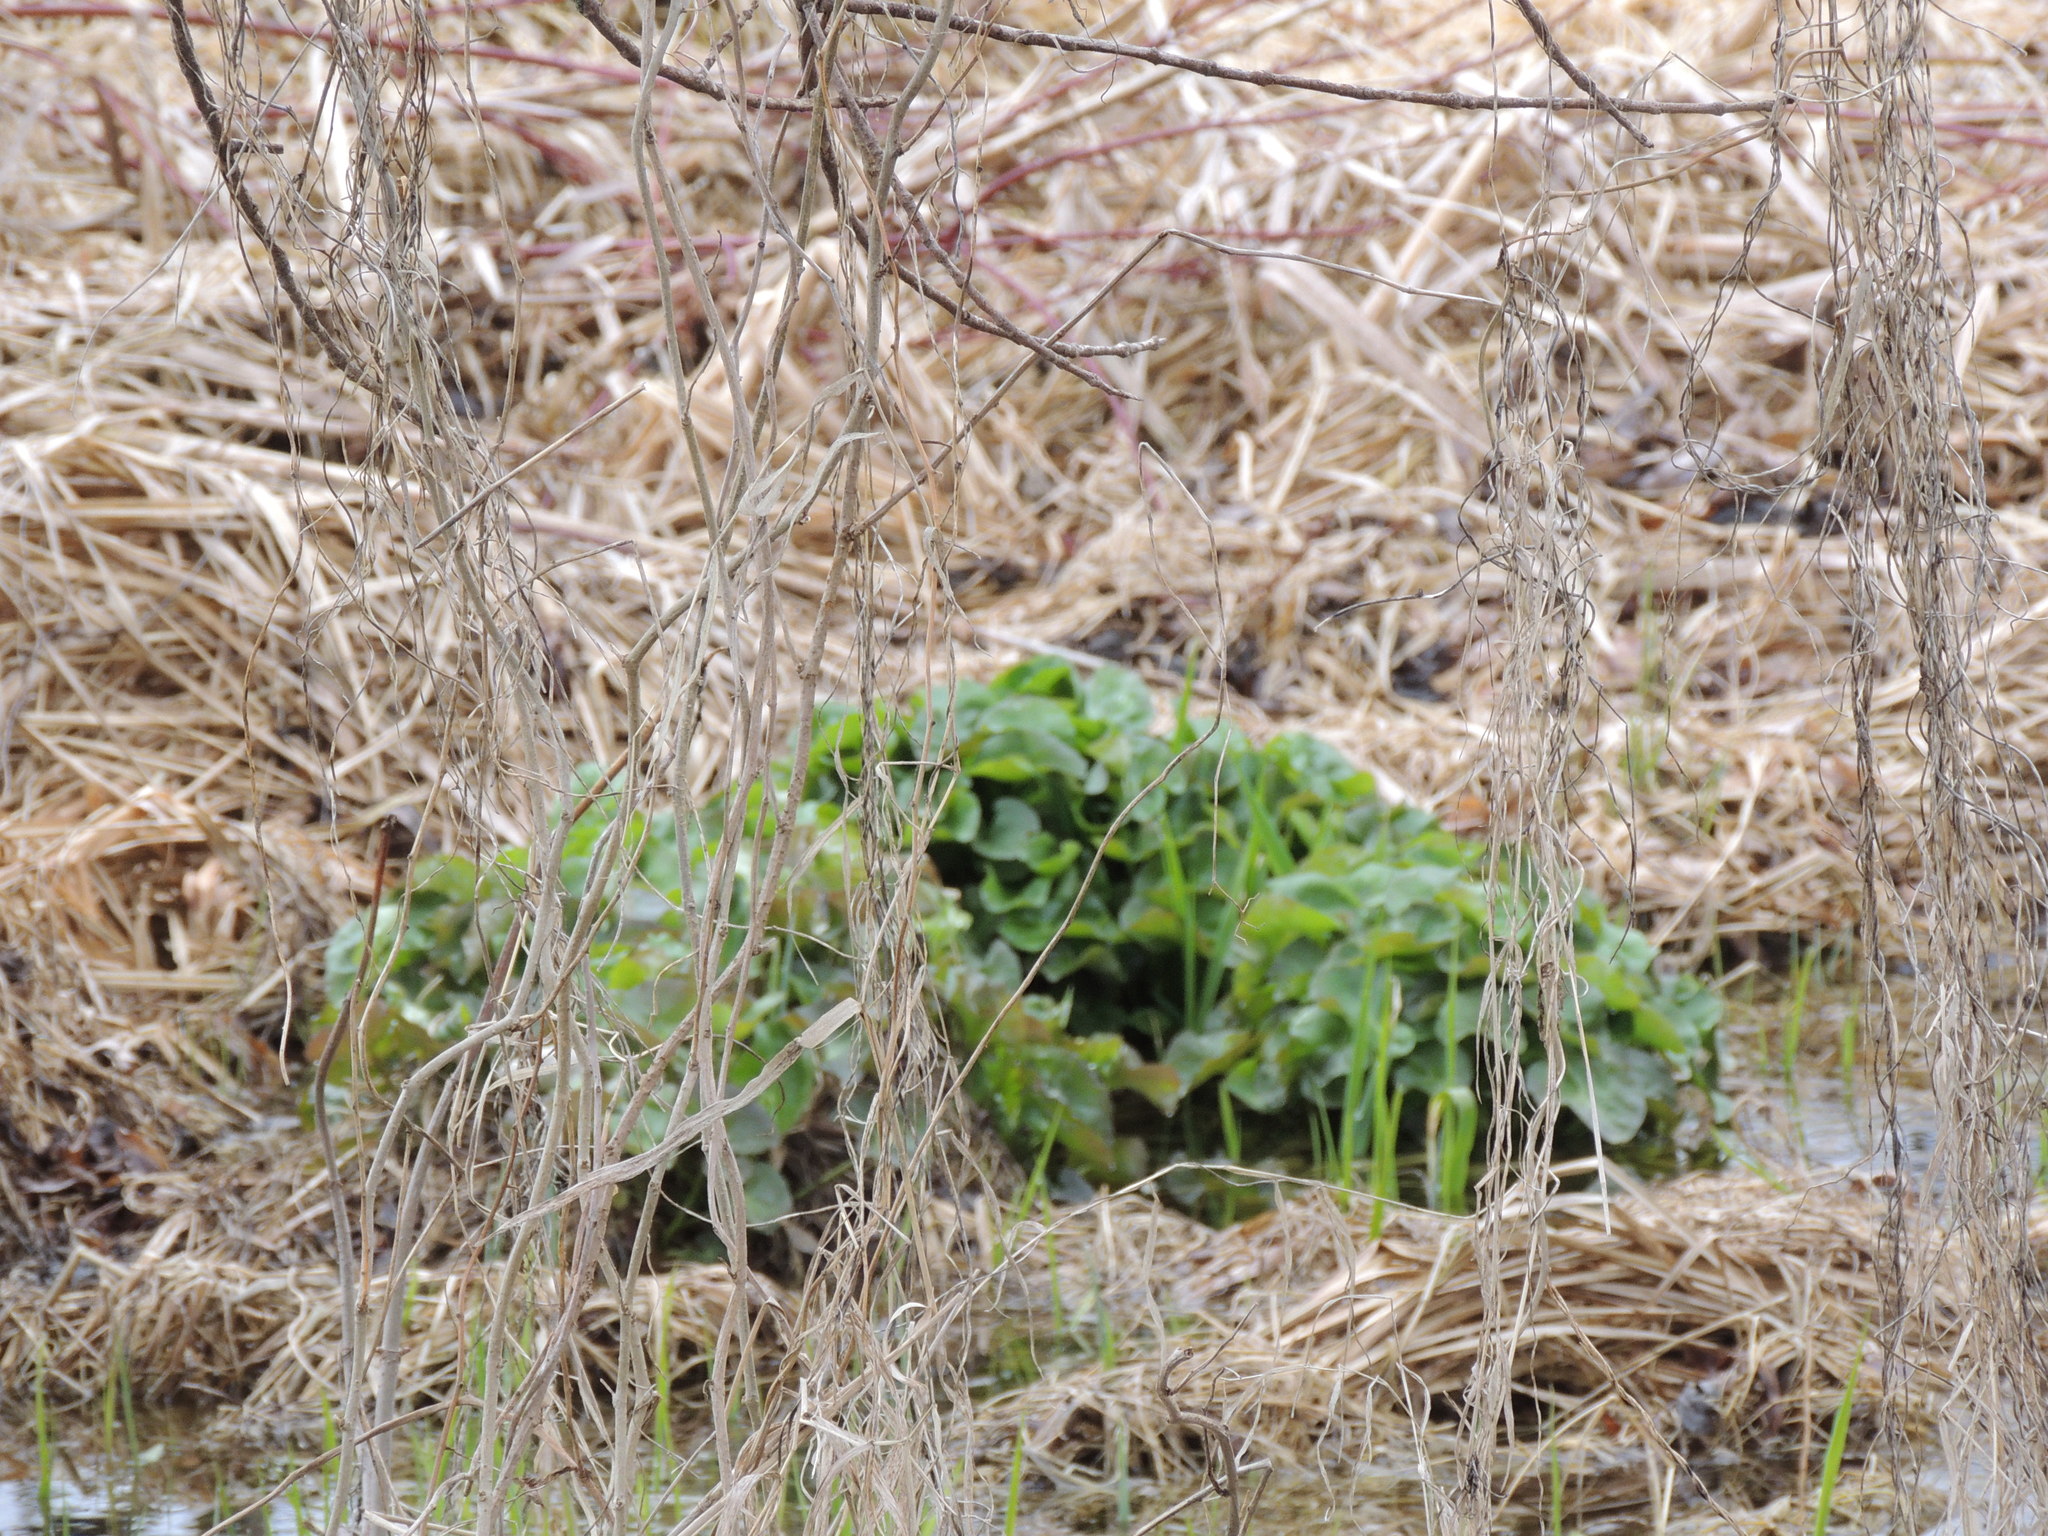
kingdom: Plantae
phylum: Tracheophyta
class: Magnoliopsida
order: Ranunculales
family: Ranunculaceae
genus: Caltha
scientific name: Caltha palustris
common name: Marsh marigold
